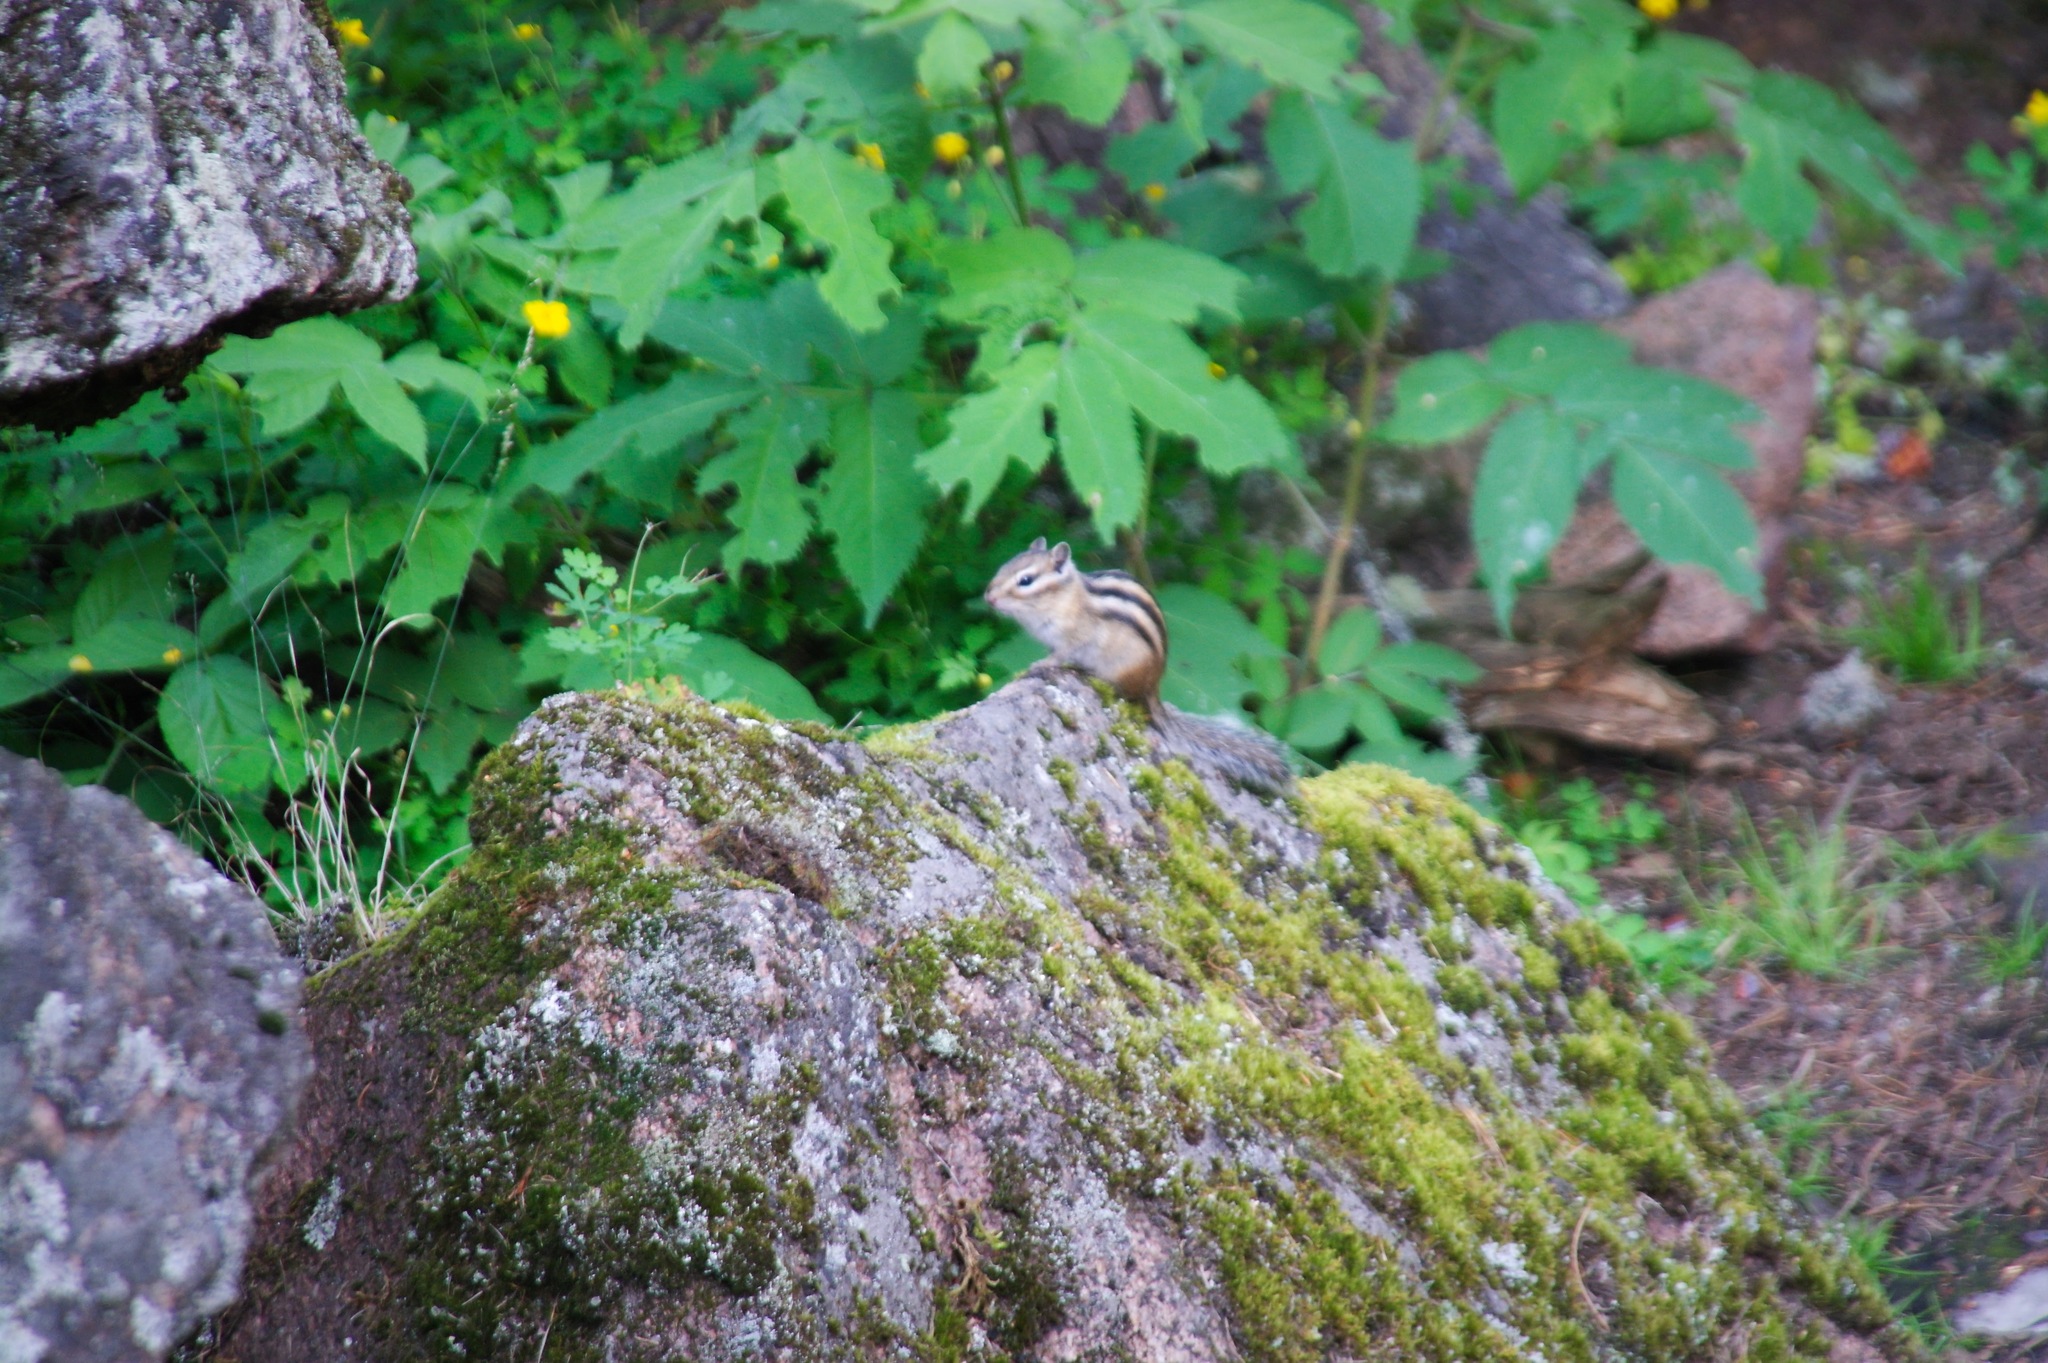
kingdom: Animalia
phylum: Chordata
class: Mammalia
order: Rodentia
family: Sciuridae
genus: Tamias
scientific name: Tamias sibiricus
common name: Siberian chipmunk
